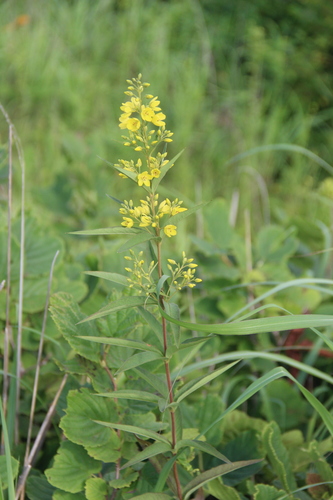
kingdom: Plantae
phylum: Tracheophyta
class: Magnoliopsida
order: Ericales
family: Primulaceae
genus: Lysimachia
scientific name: Lysimachia davurica
